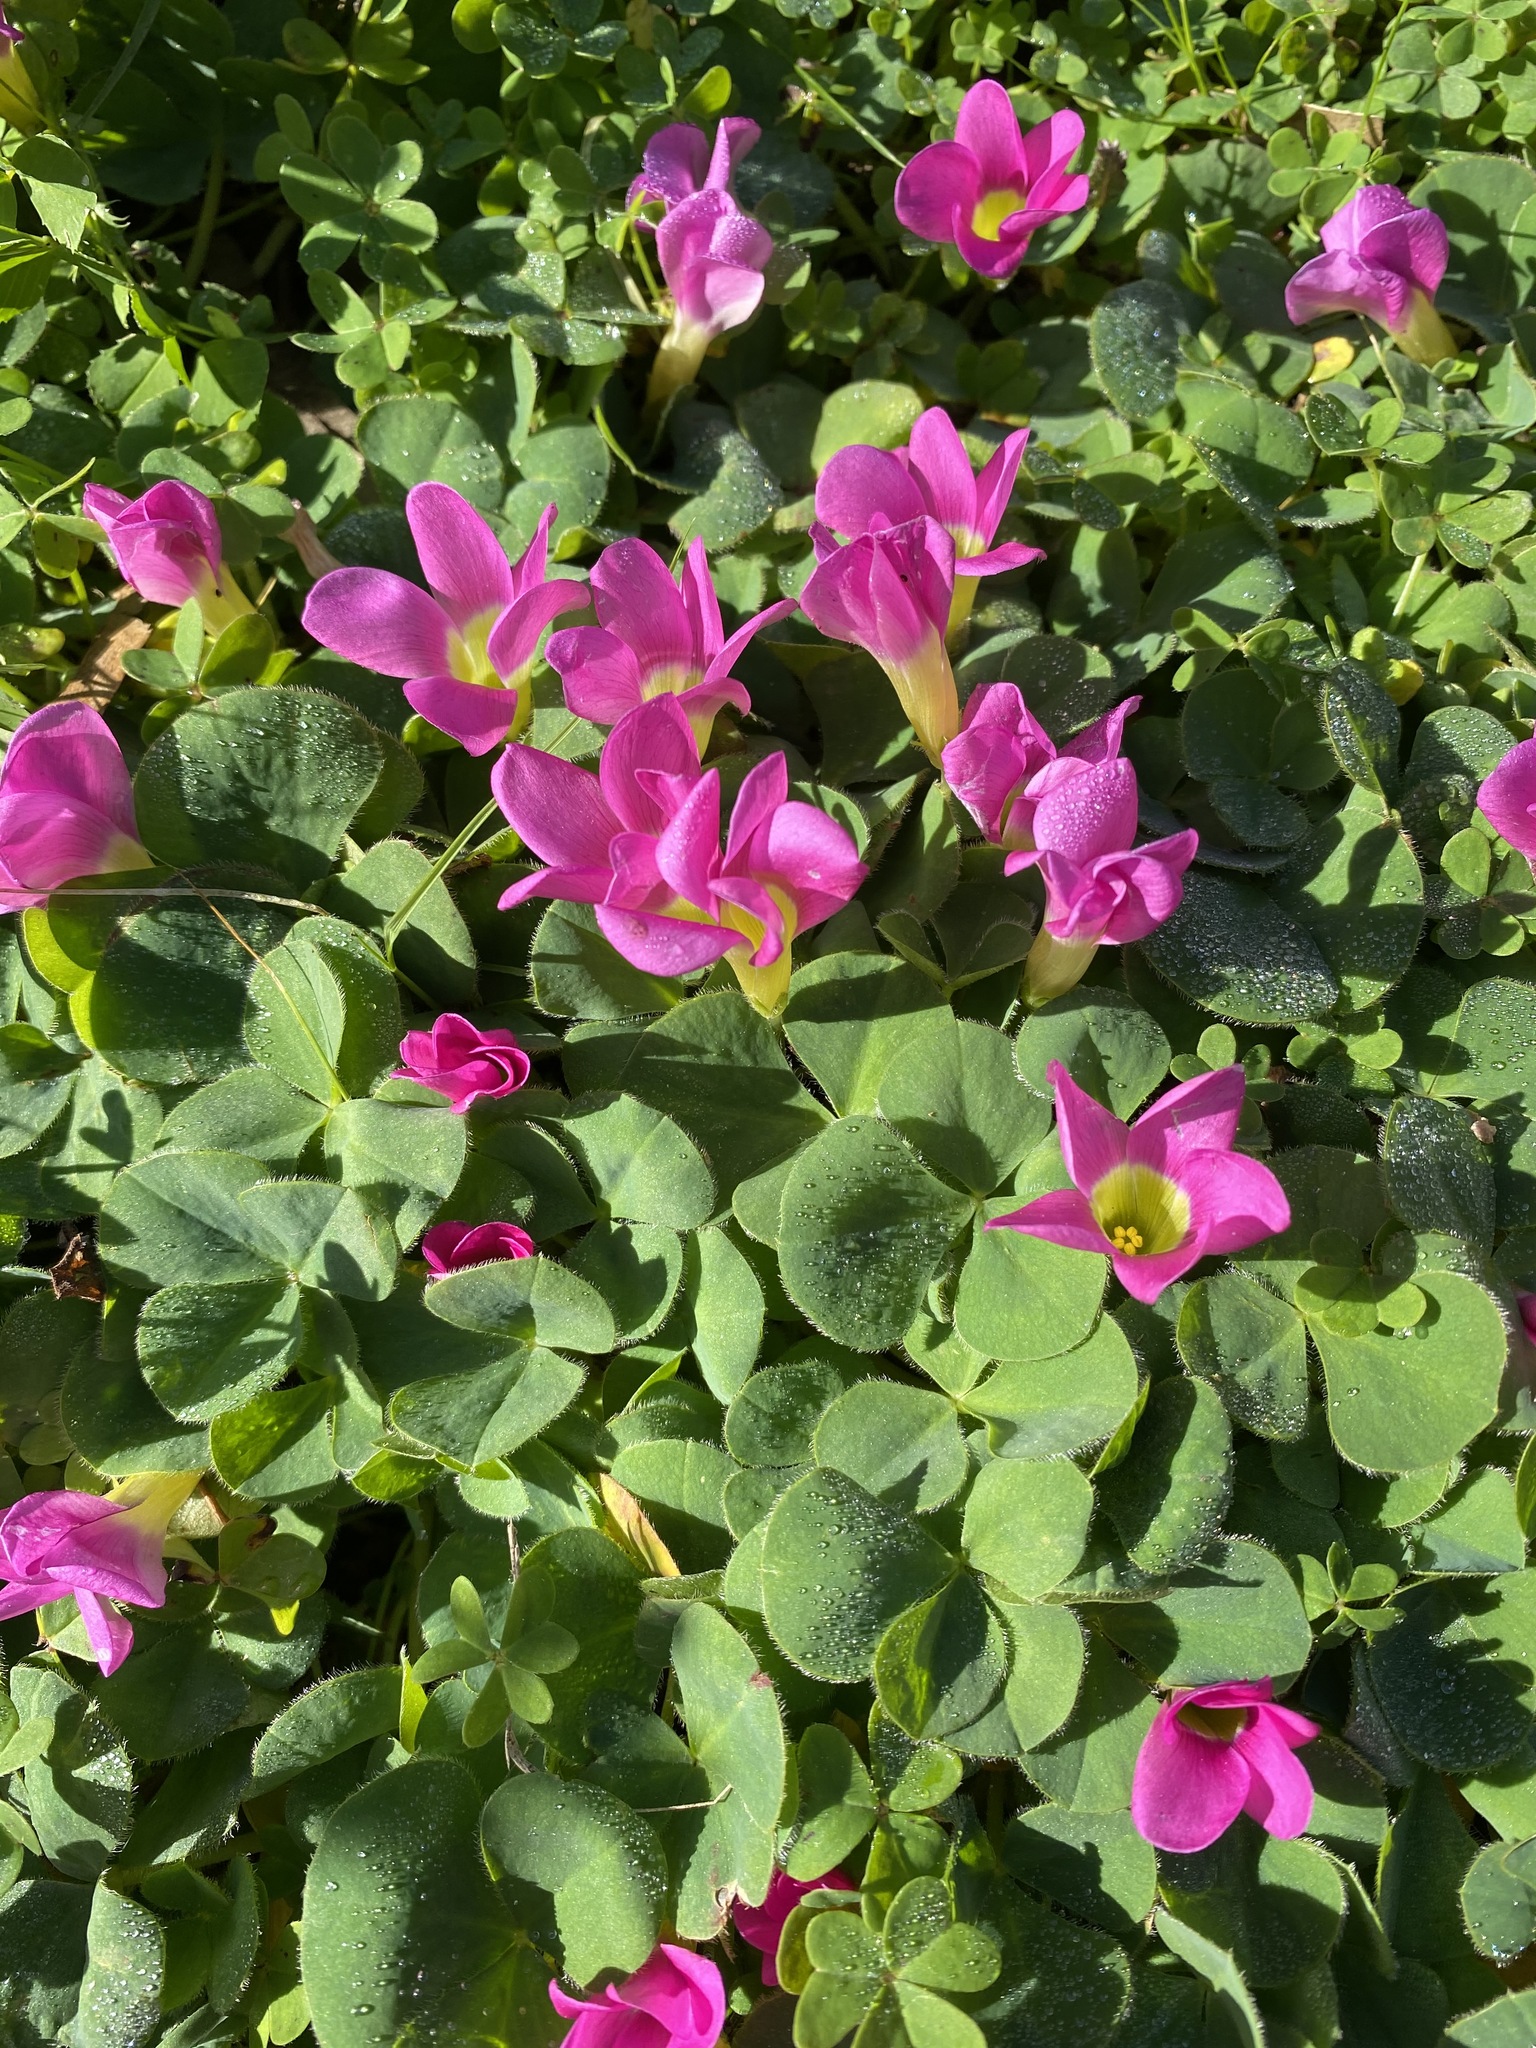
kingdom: Plantae
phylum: Tracheophyta
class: Magnoliopsida
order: Oxalidales
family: Oxalidaceae
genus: Oxalis
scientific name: Oxalis purpurea
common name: Purple woodsorrel
